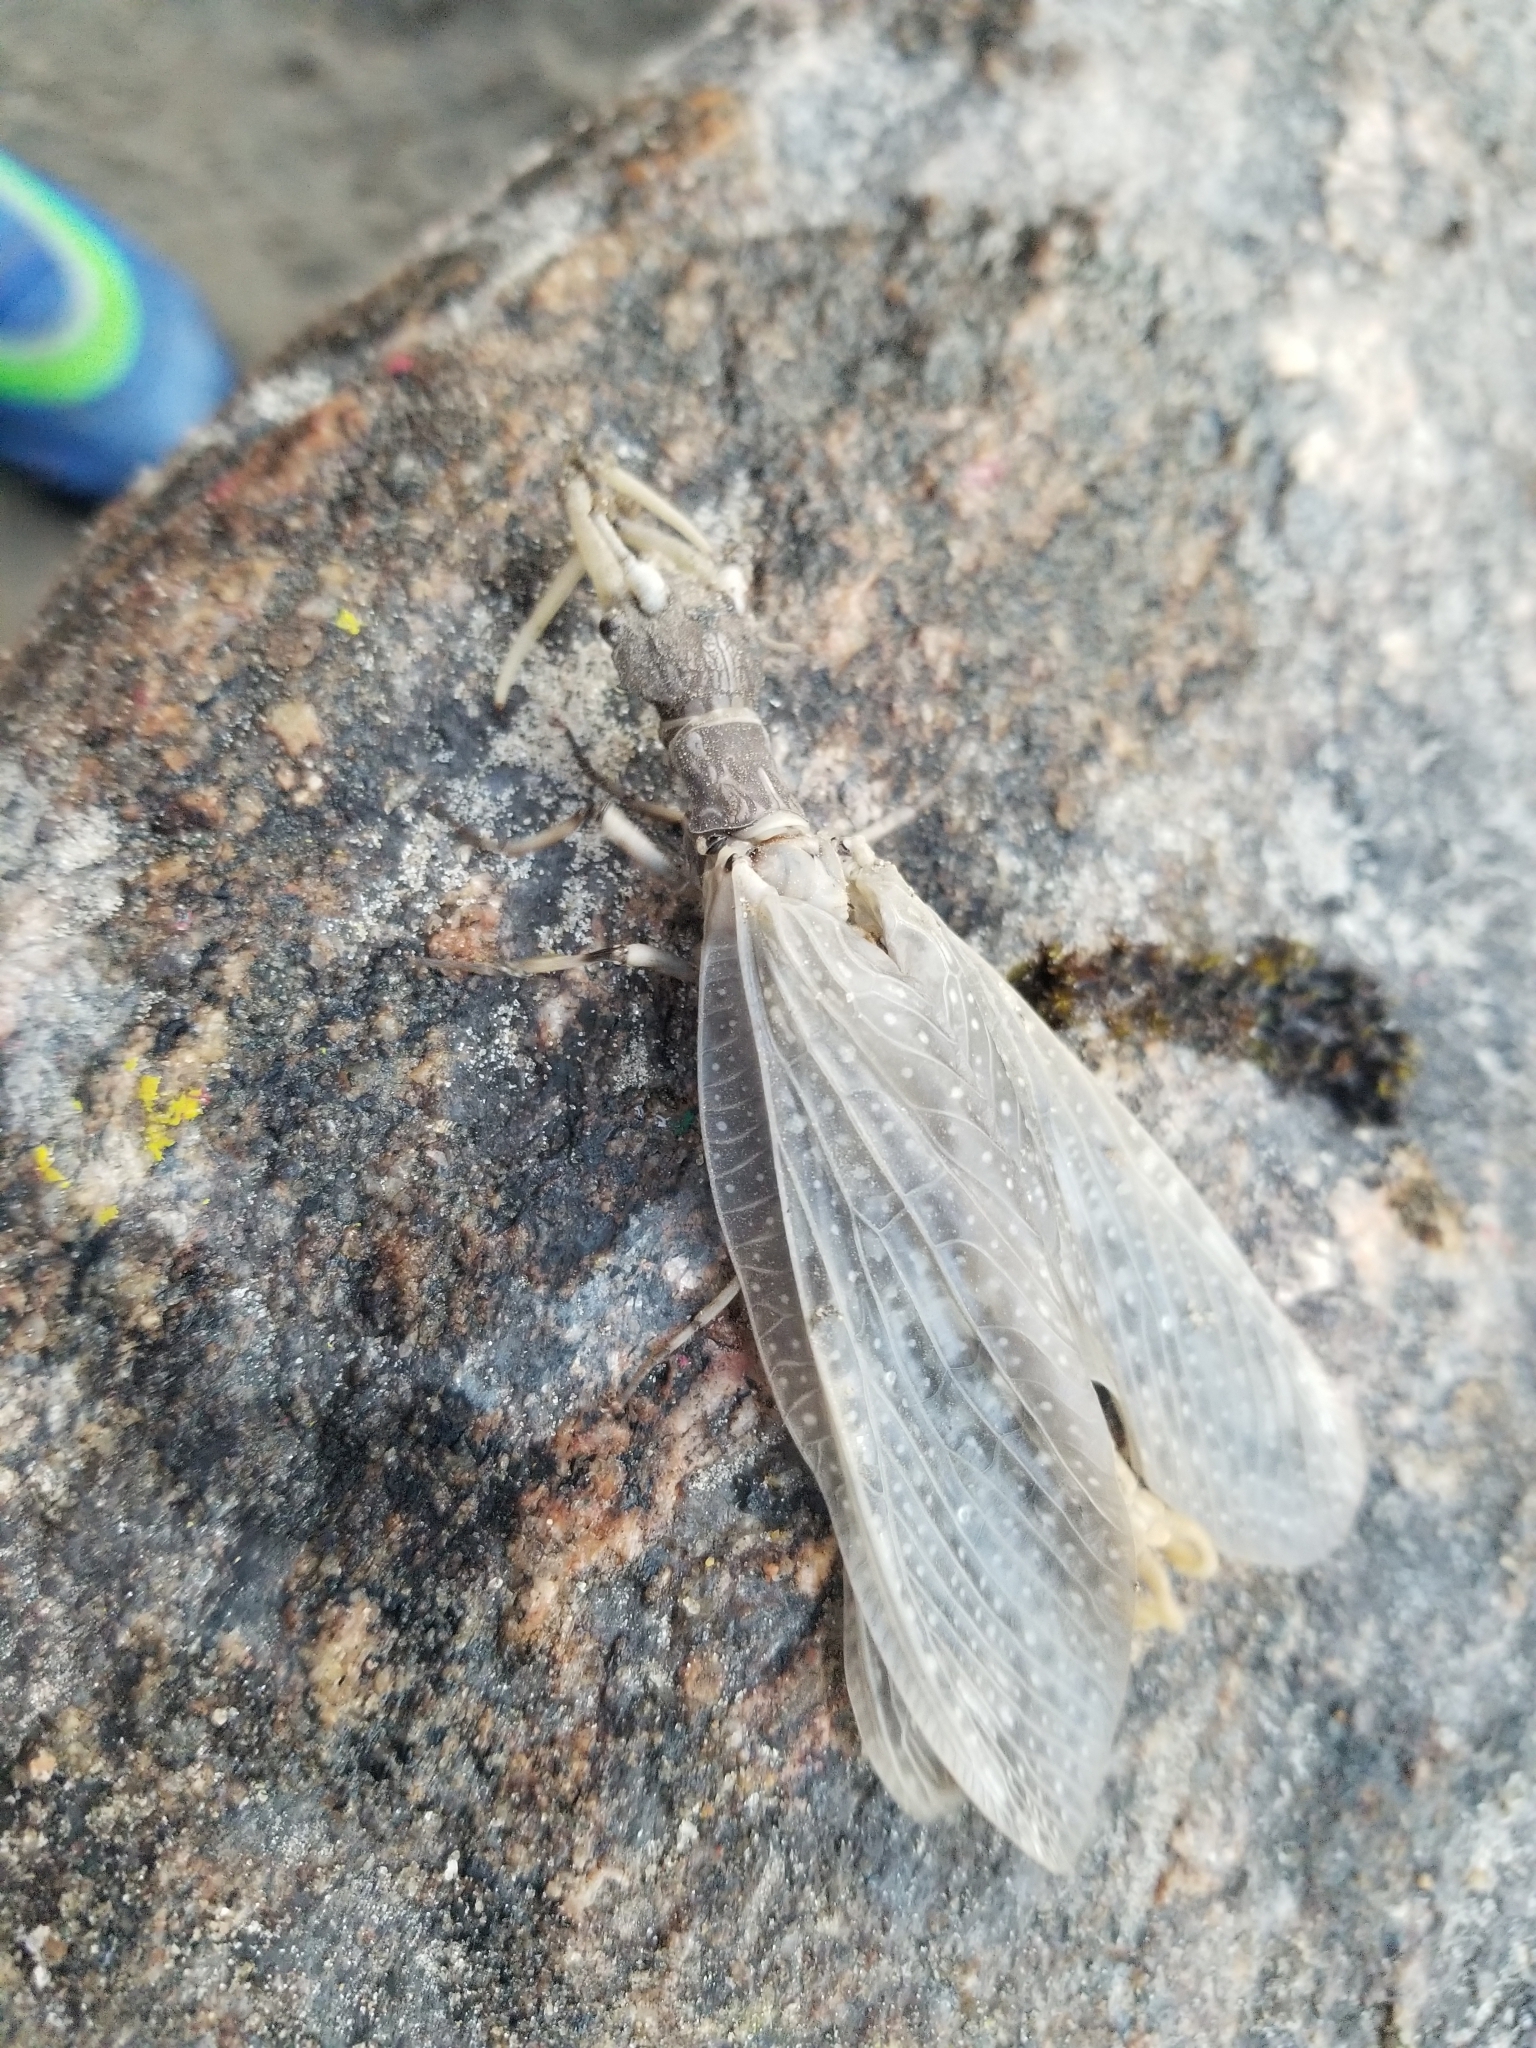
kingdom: Animalia
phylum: Arthropoda
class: Insecta
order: Megaloptera
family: Corydalidae
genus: Corydalus
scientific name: Corydalus cornutus
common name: Dobsonfly
